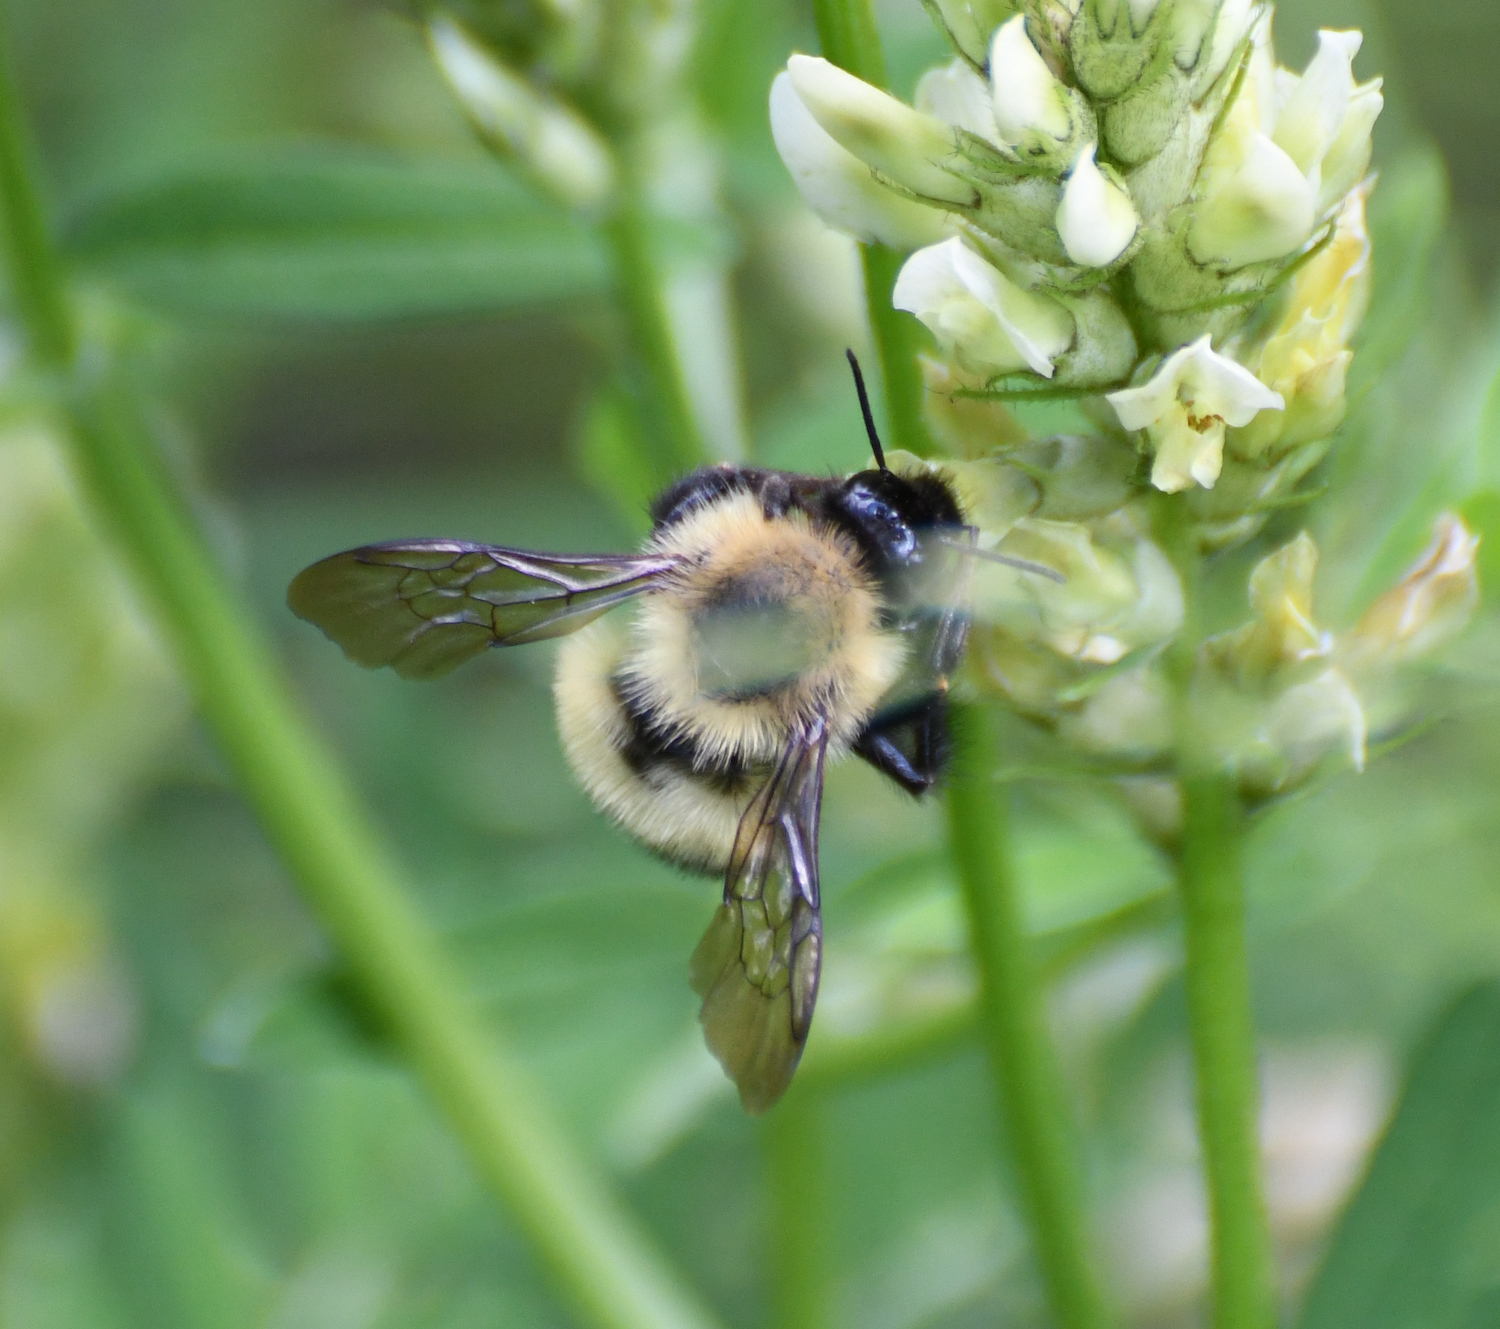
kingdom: Animalia
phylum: Arthropoda
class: Insecta
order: Hymenoptera
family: Apidae
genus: Bombus
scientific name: Bombus vagans
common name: Half-black bumble bee
